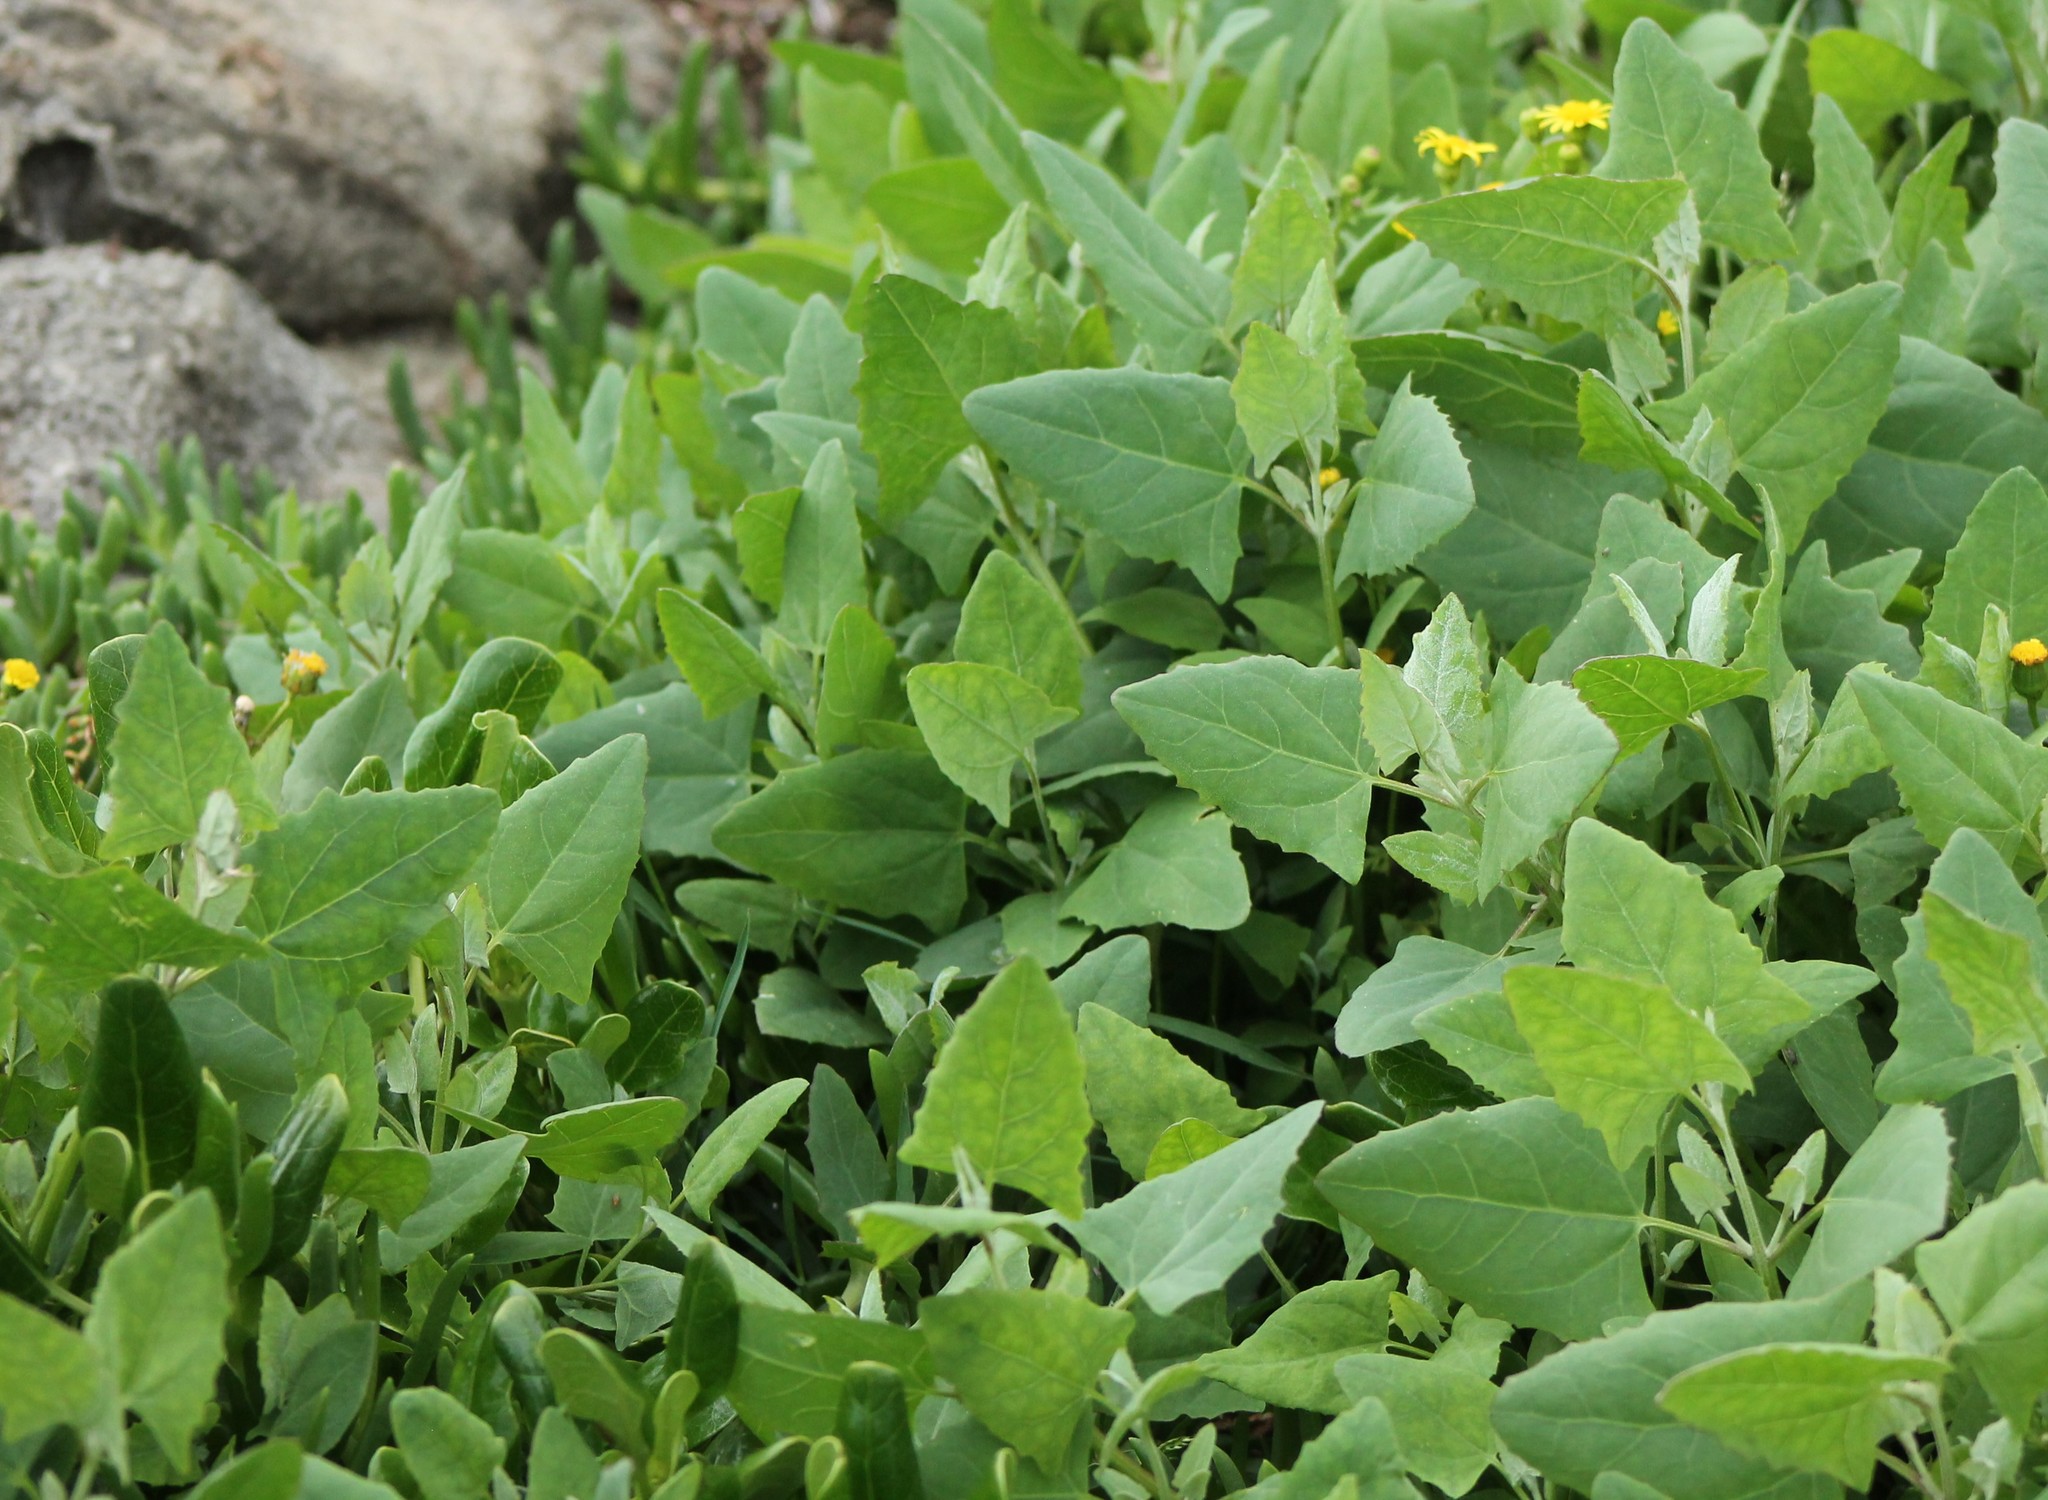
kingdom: Plantae
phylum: Tracheophyta
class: Magnoliopsida
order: Caryophyllales
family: Amaranthaceae
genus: Atriplex
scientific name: Atriplex prostrata
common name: Spear-leaved orache
